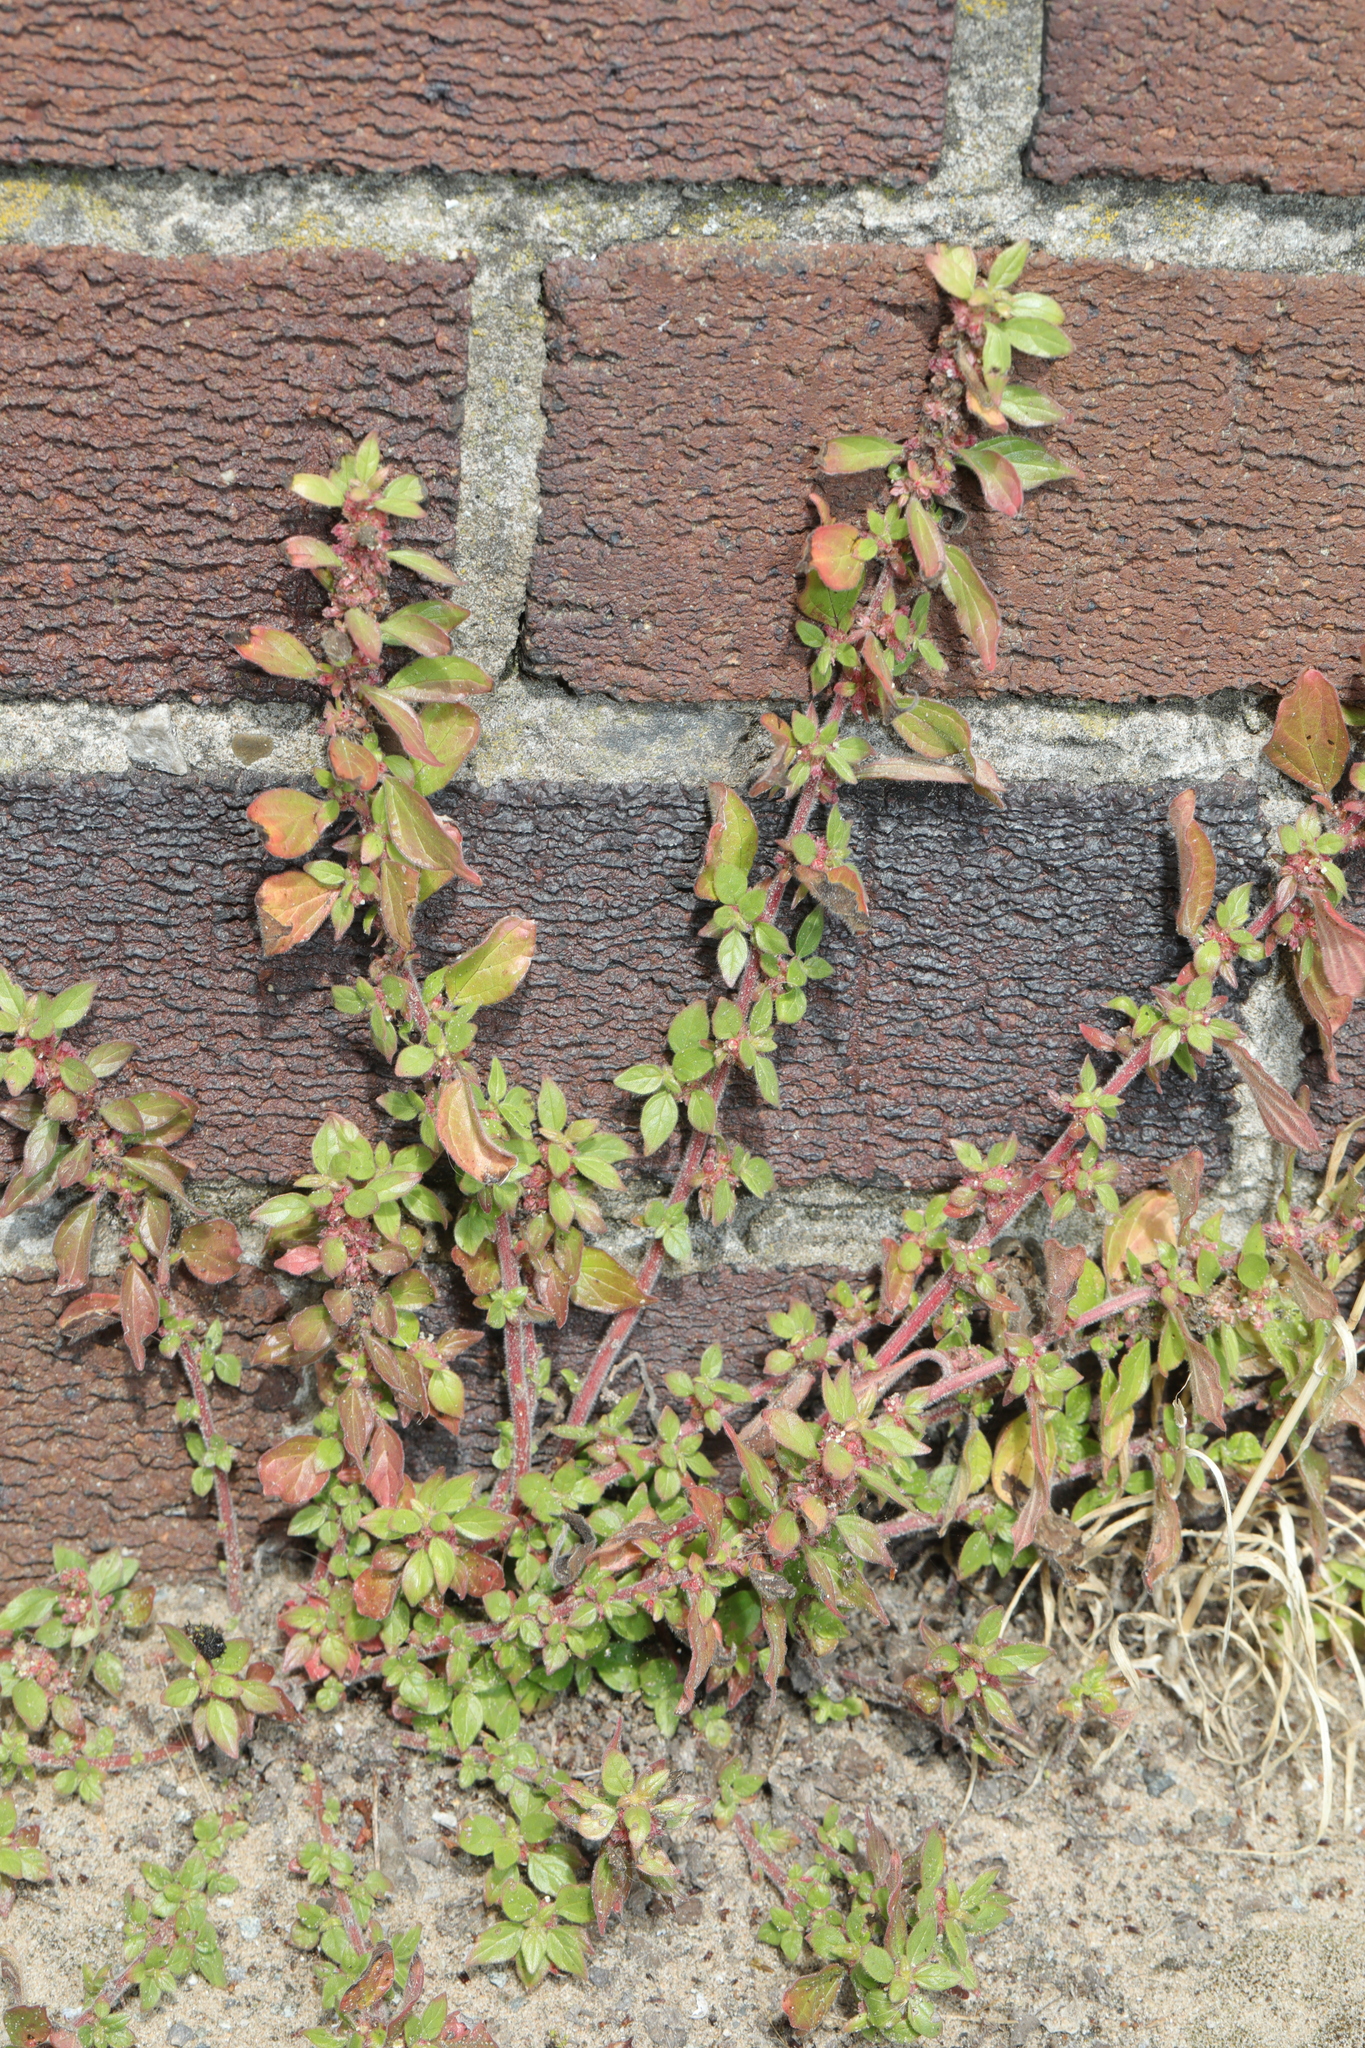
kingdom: Plantae
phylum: Tracheophyta
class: Magnoliopsida
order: Rosales
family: Urticaceae
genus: Parietaria
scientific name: Parietaria judaica
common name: Pellitory-of-the-wall
